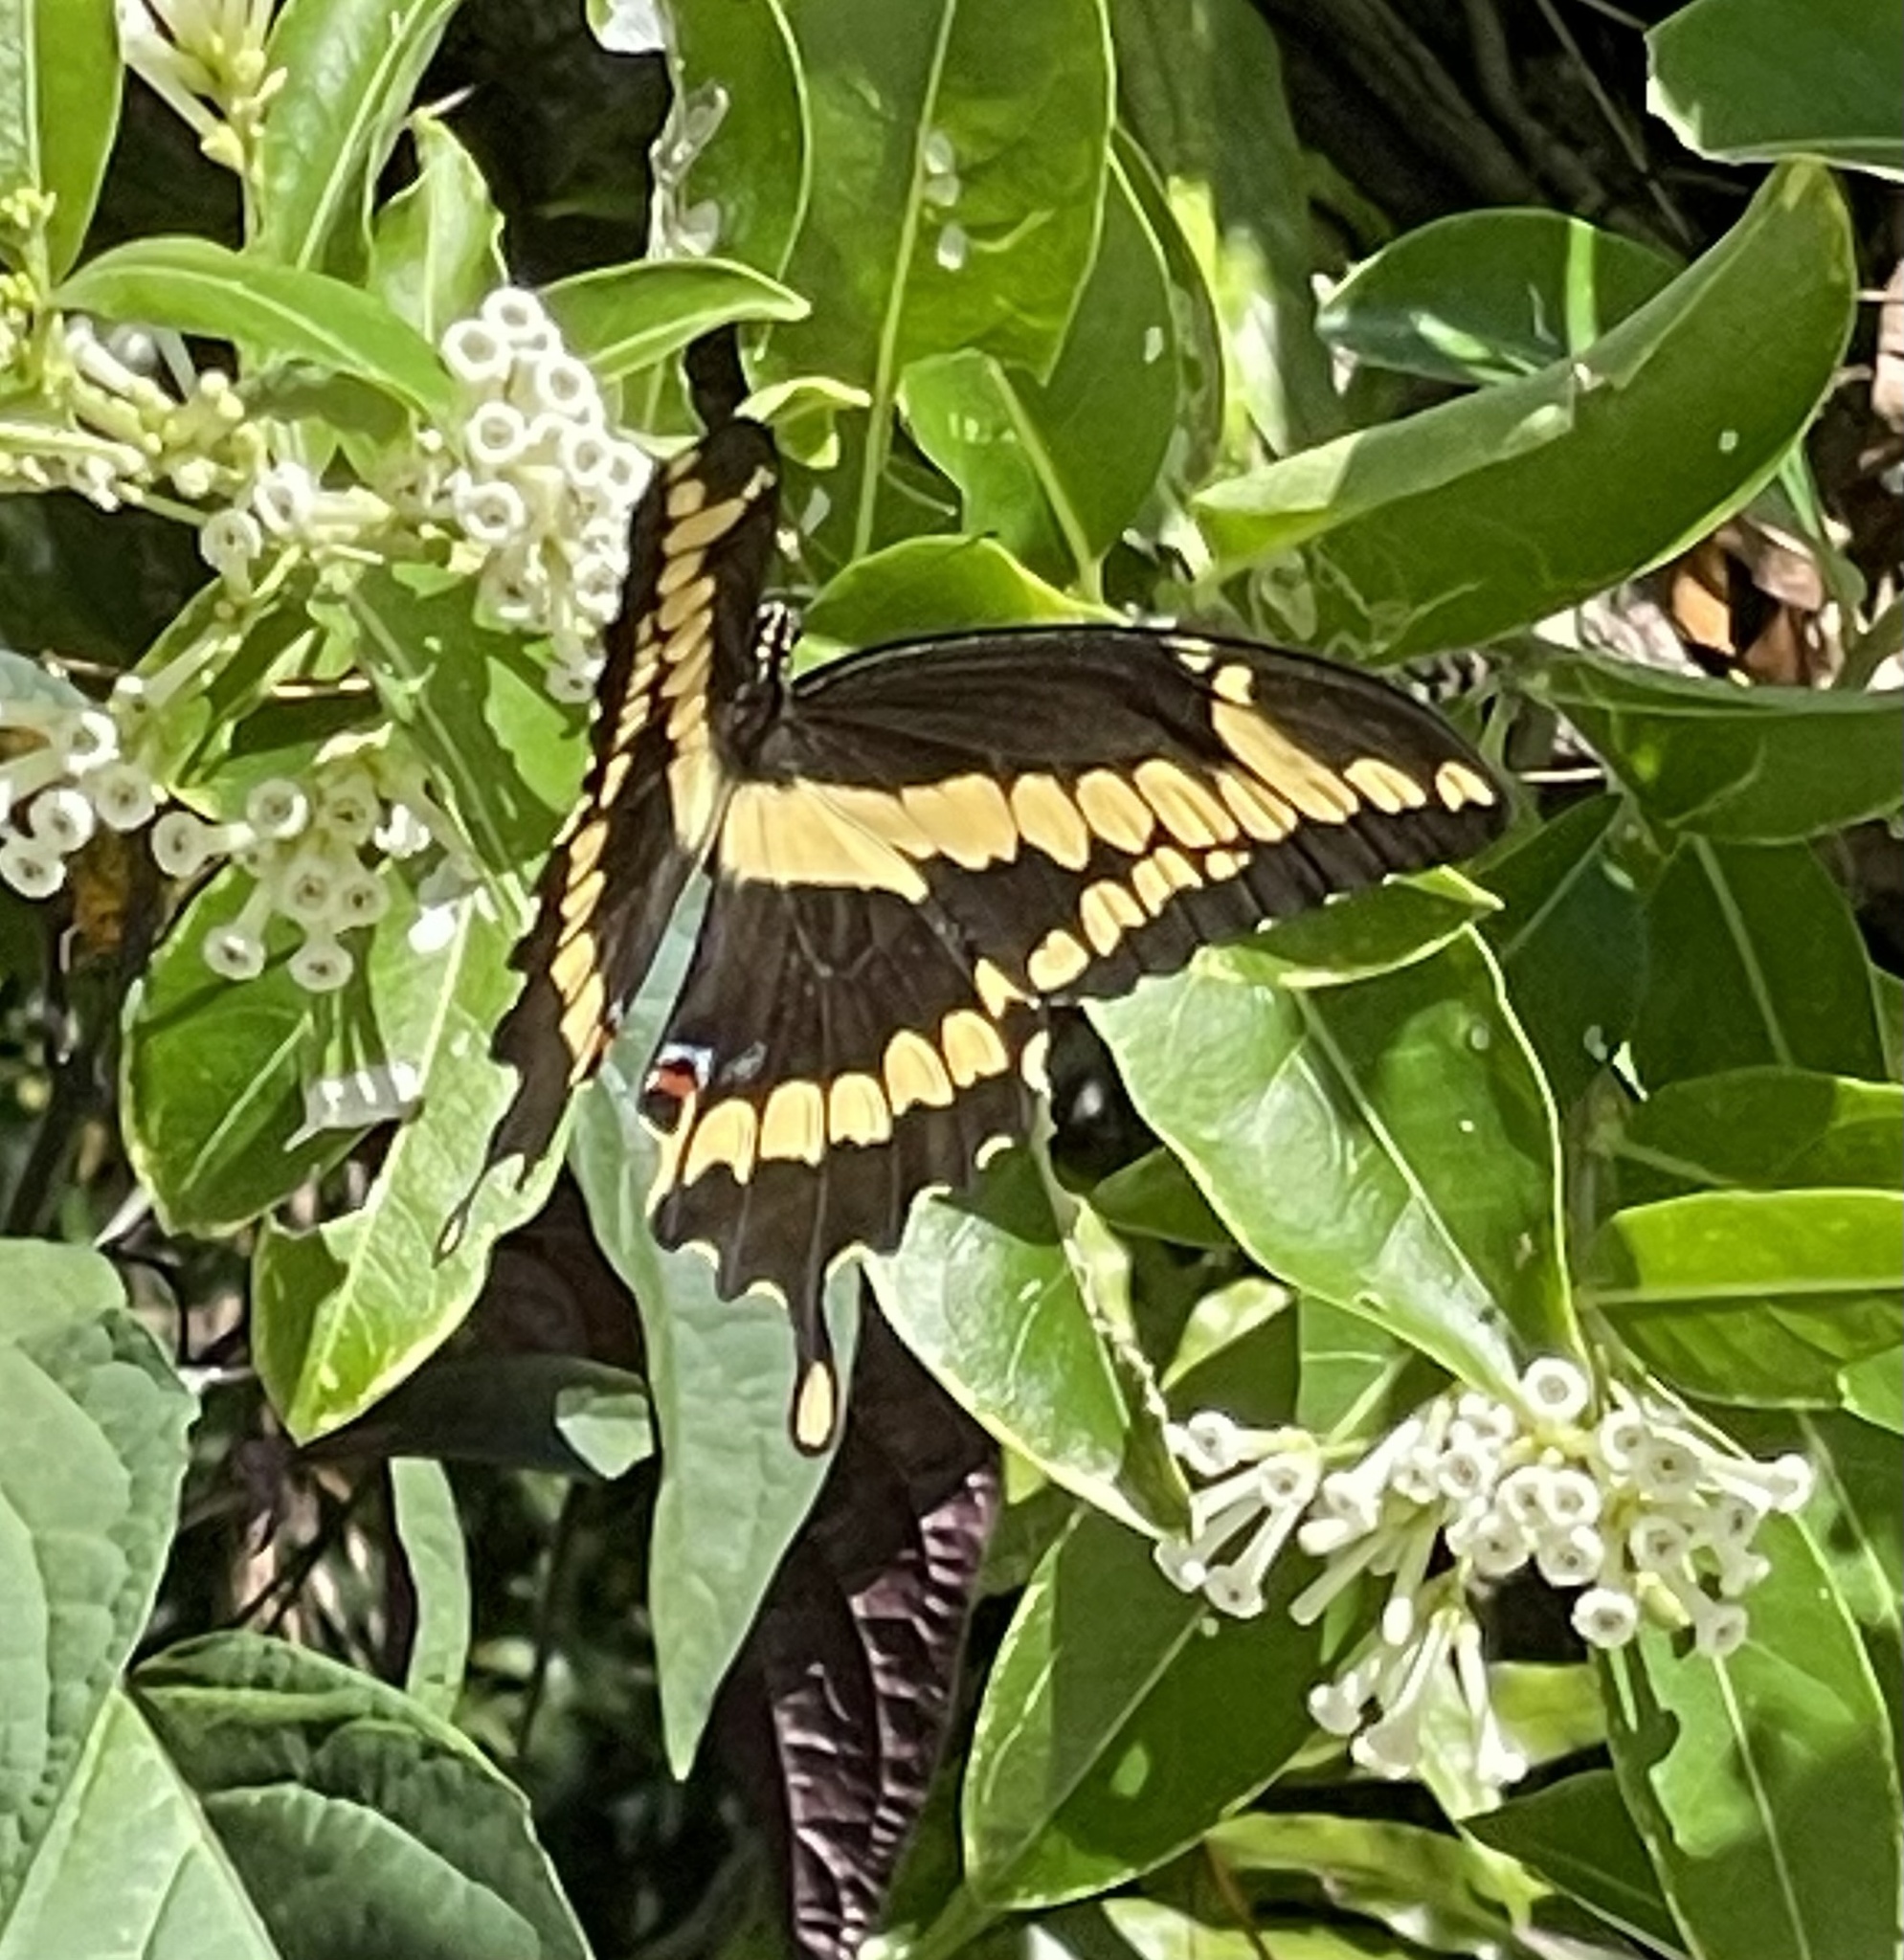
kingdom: Animalia
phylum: Arthropoda
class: Insecta
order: Lepidoptera
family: Papilionidae
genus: Papilio
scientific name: Papilio cresphontes
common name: Giant swallowtail
